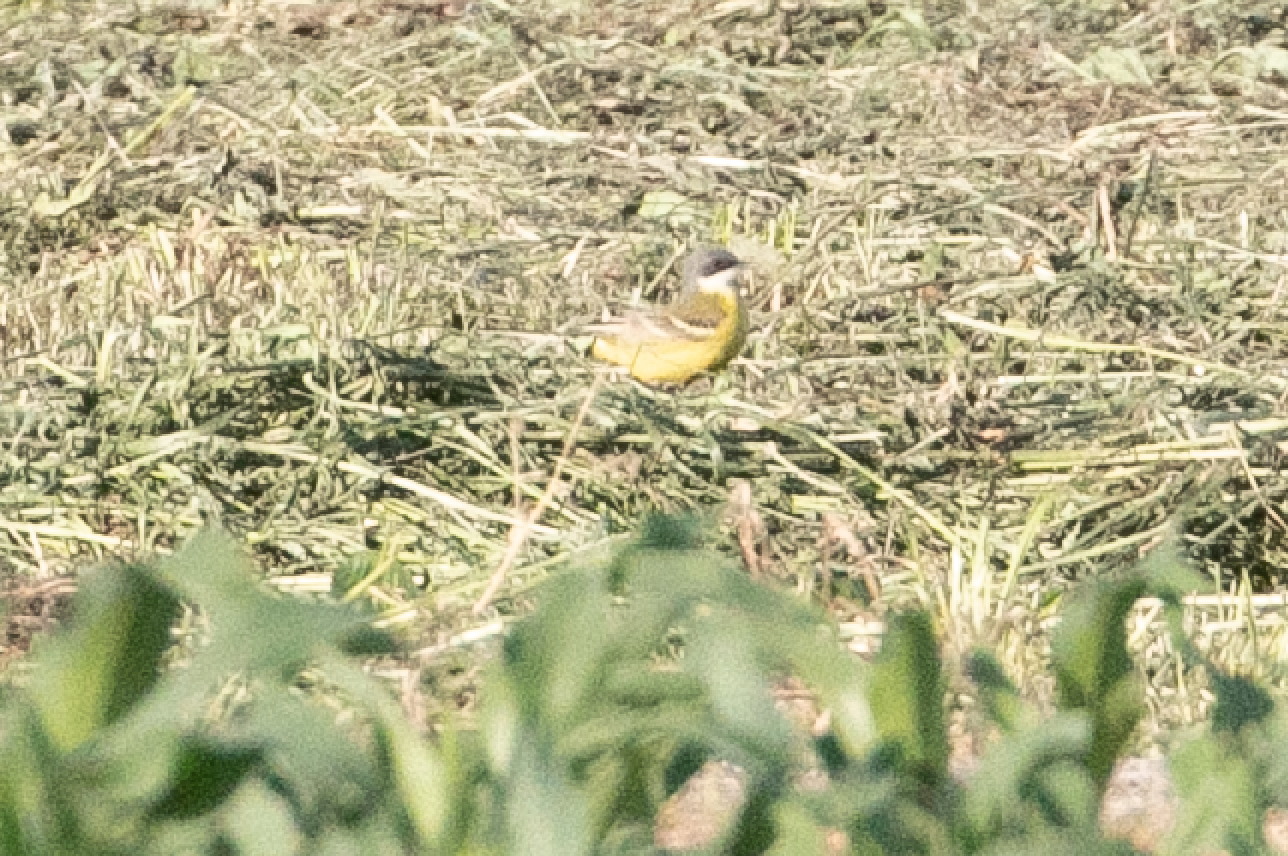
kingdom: Animalia
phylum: Chordata
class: Aves
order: Passeriformes
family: Motacillidae
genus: Motacilla
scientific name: Motacilla flava
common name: Western yellow wagtail
